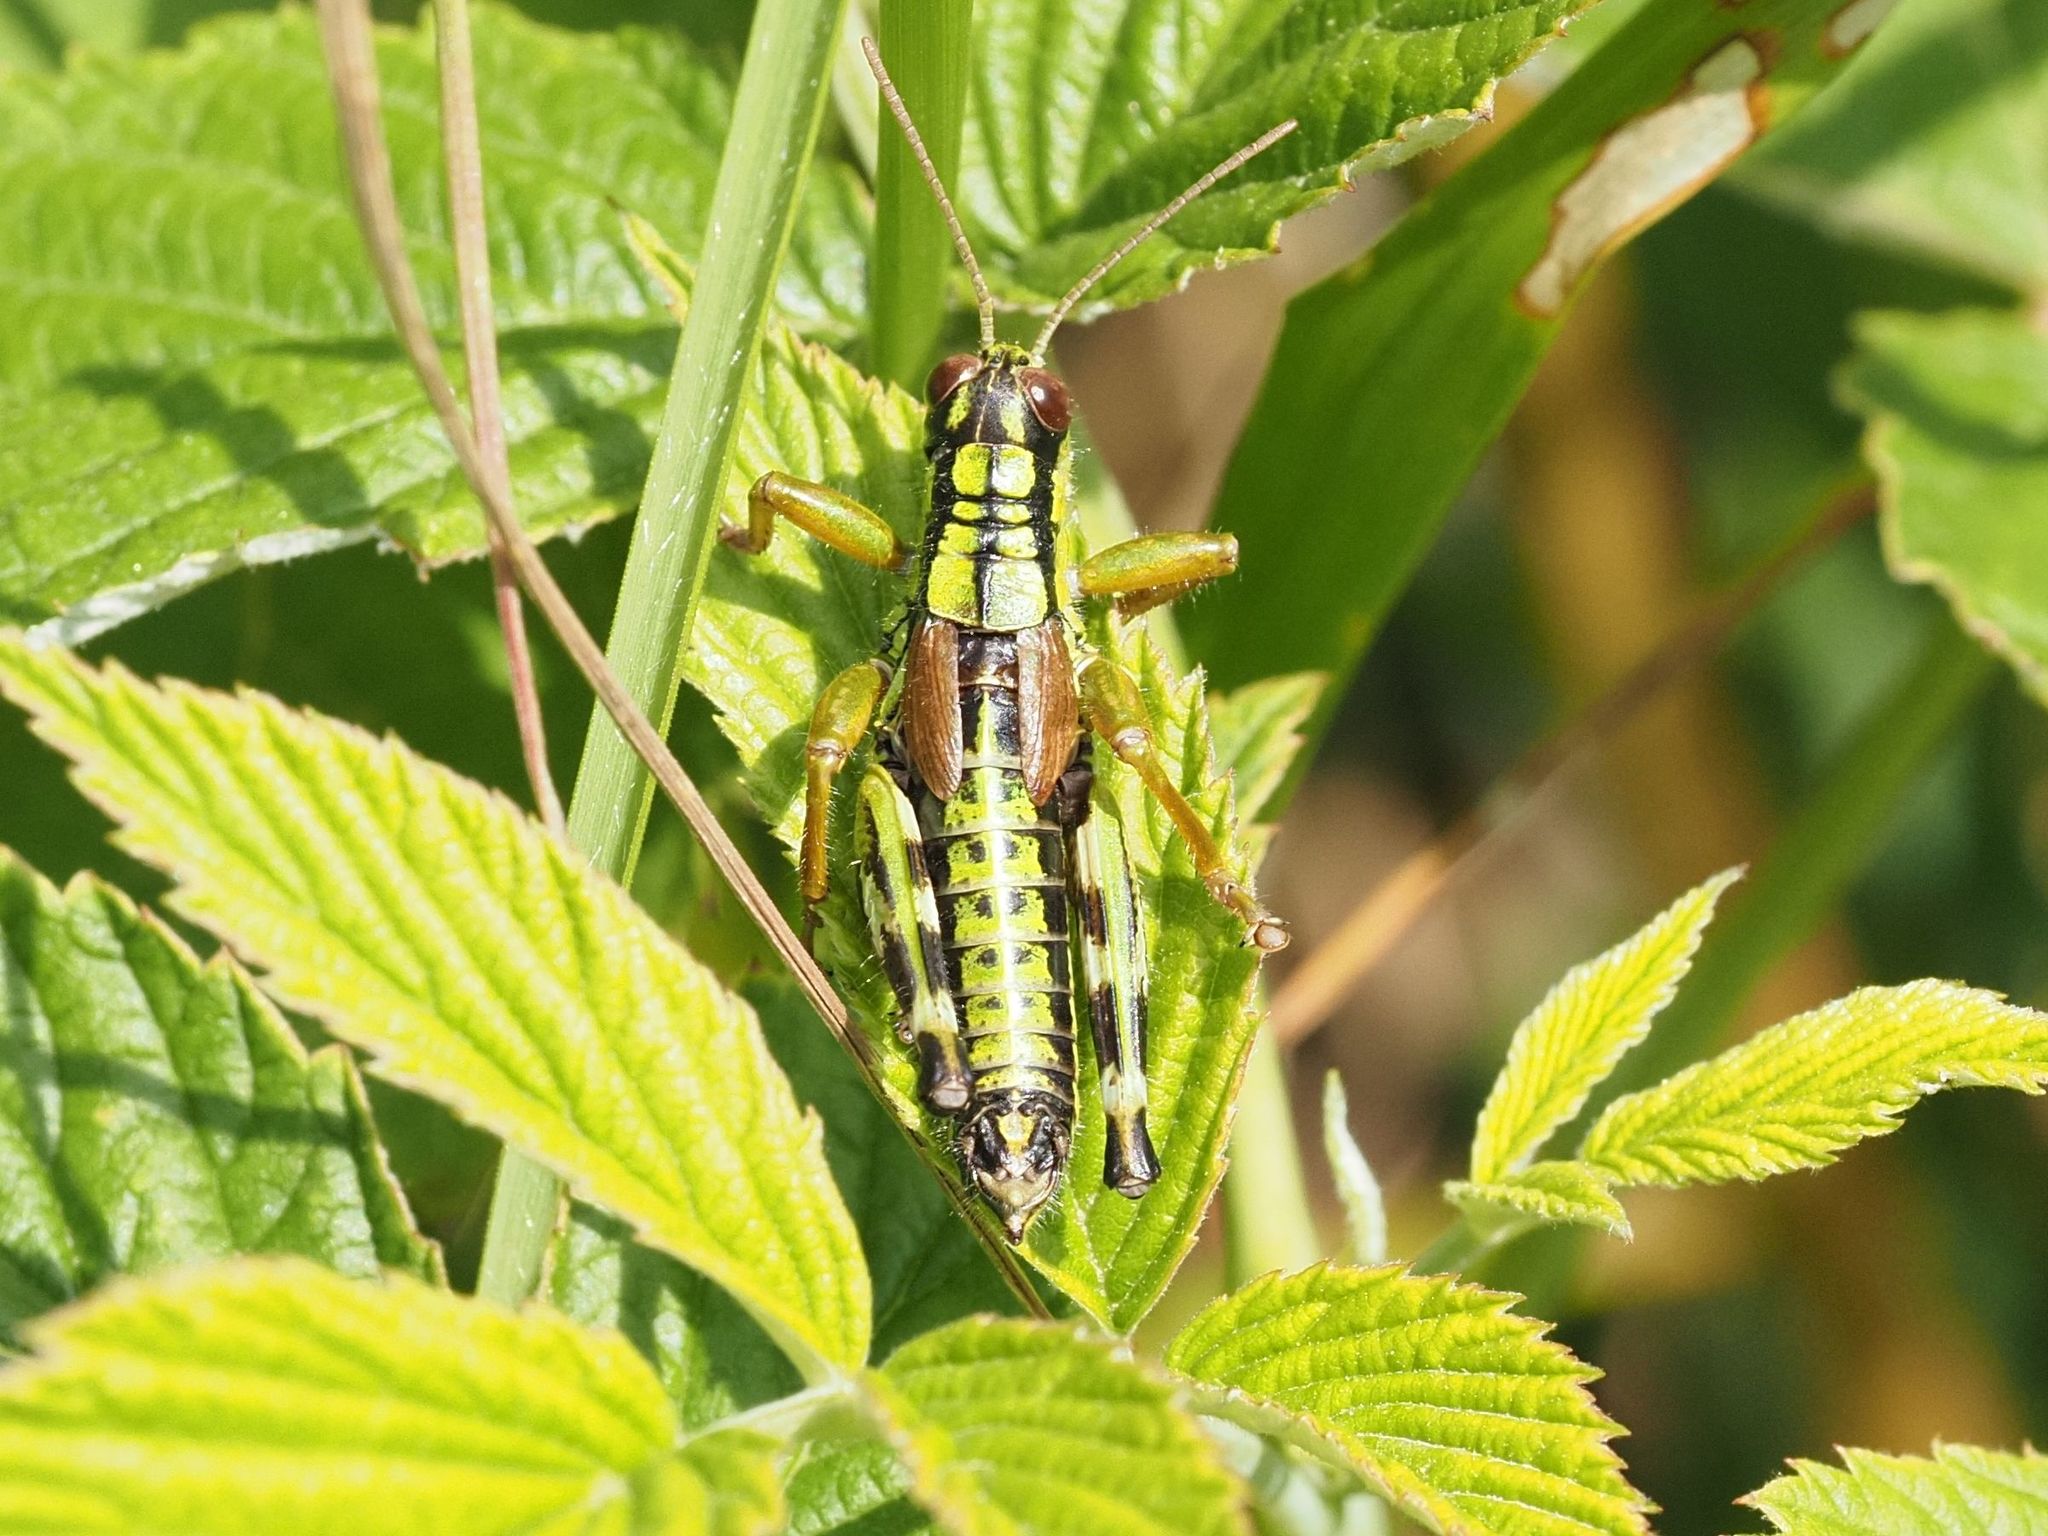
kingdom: Animalia
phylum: Arthropoda
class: Insecta
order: Orthoptera
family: Acrididae
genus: Miramella
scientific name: Miramella alpina
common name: Green mountain grasshopper
